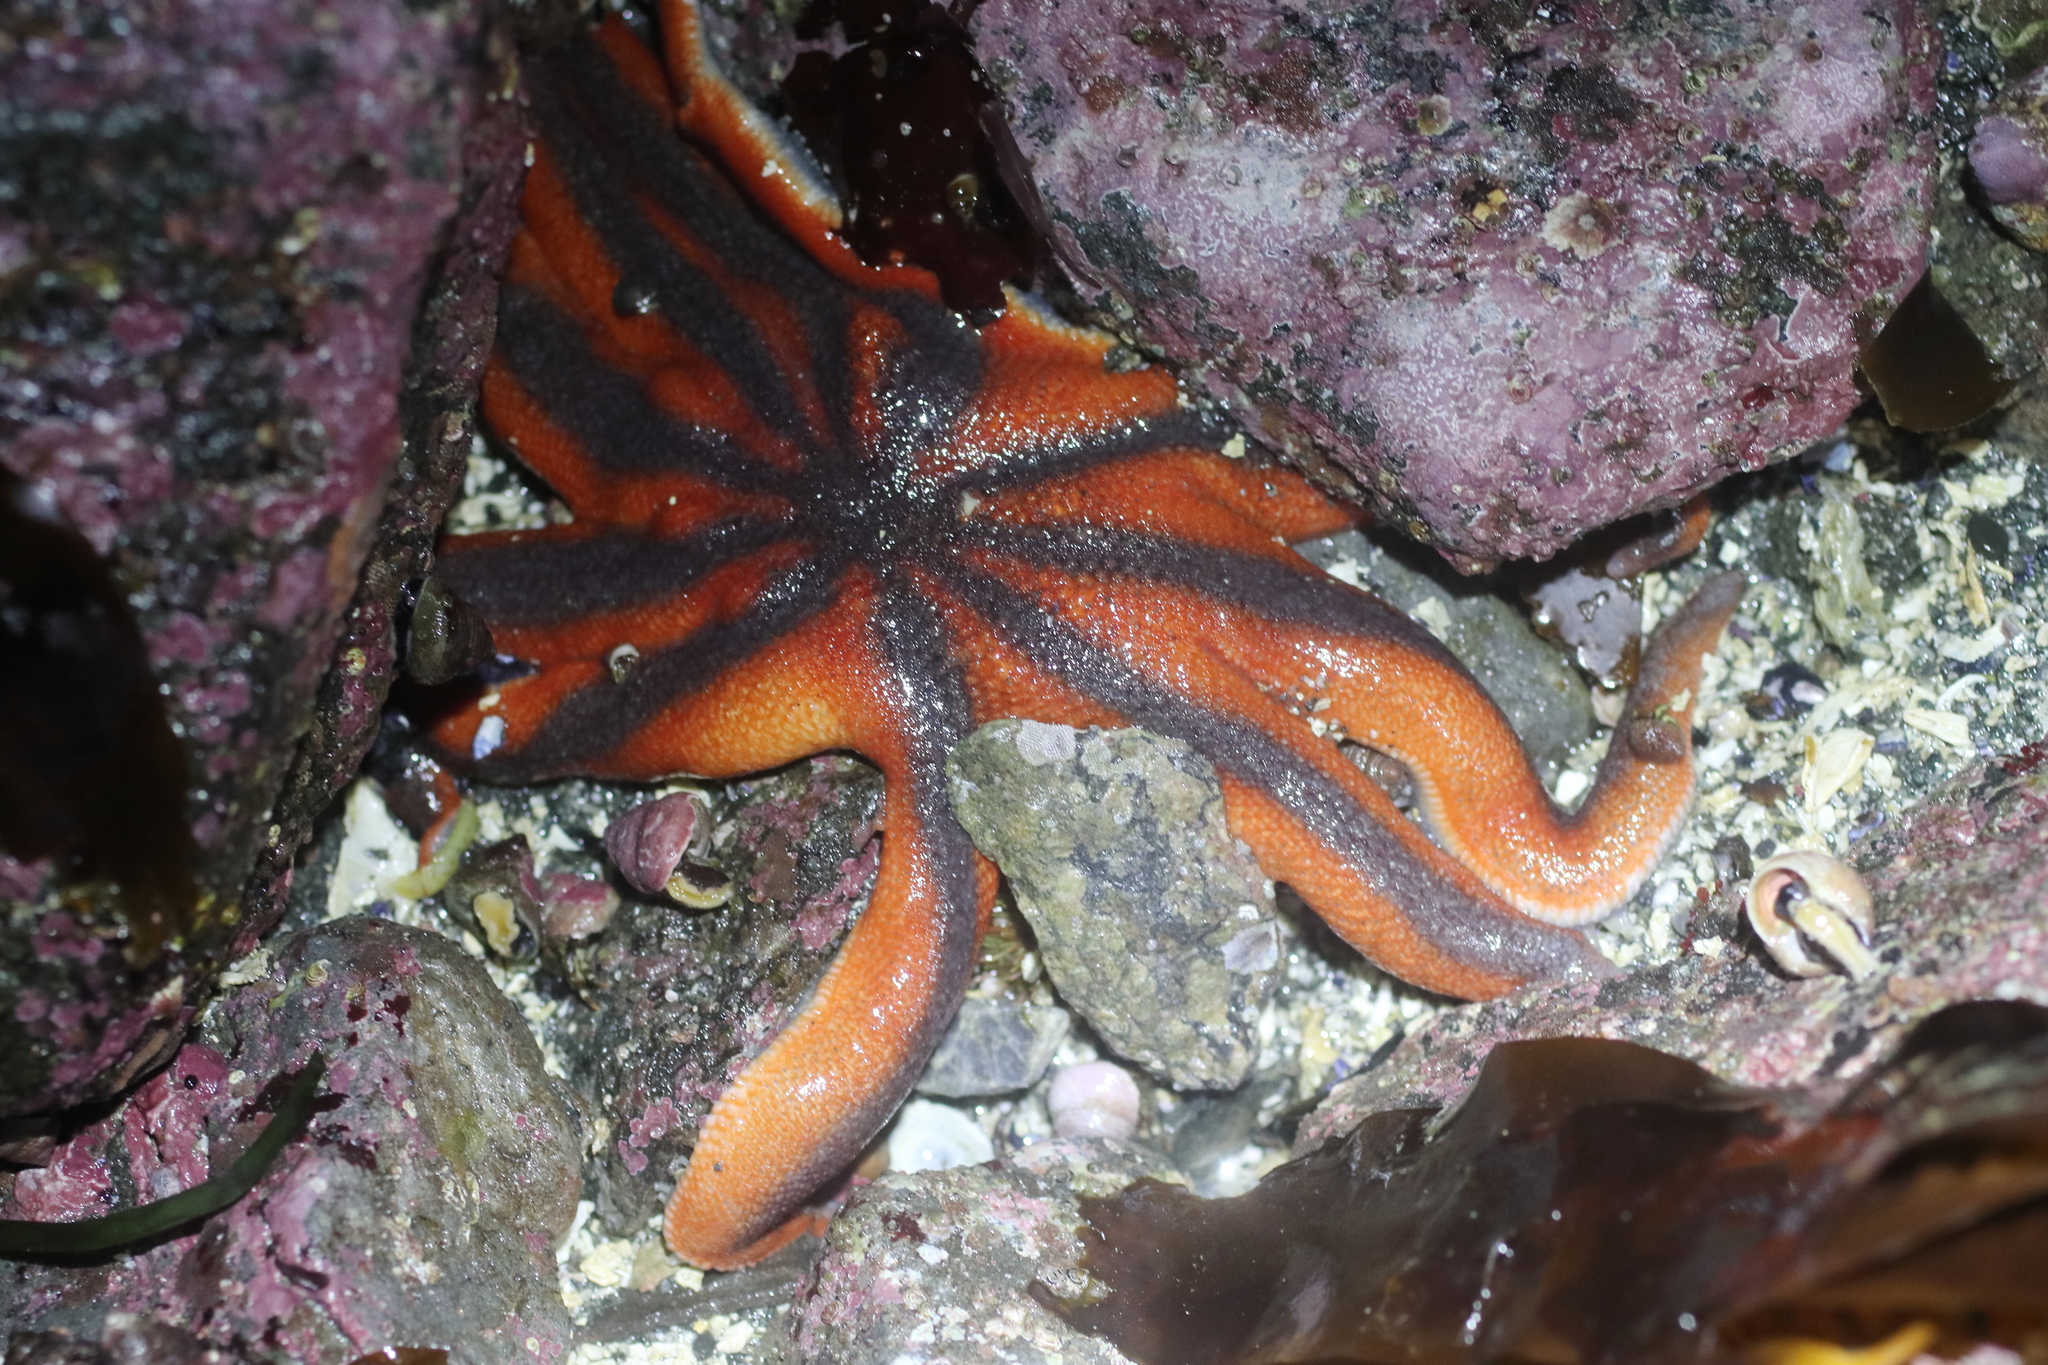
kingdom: Animalia
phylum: Echinodermata
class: Asteroidea
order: Valvatida
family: Solasteridae
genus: Solaster
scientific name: Solaster stimpsoni
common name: Orange sun star
